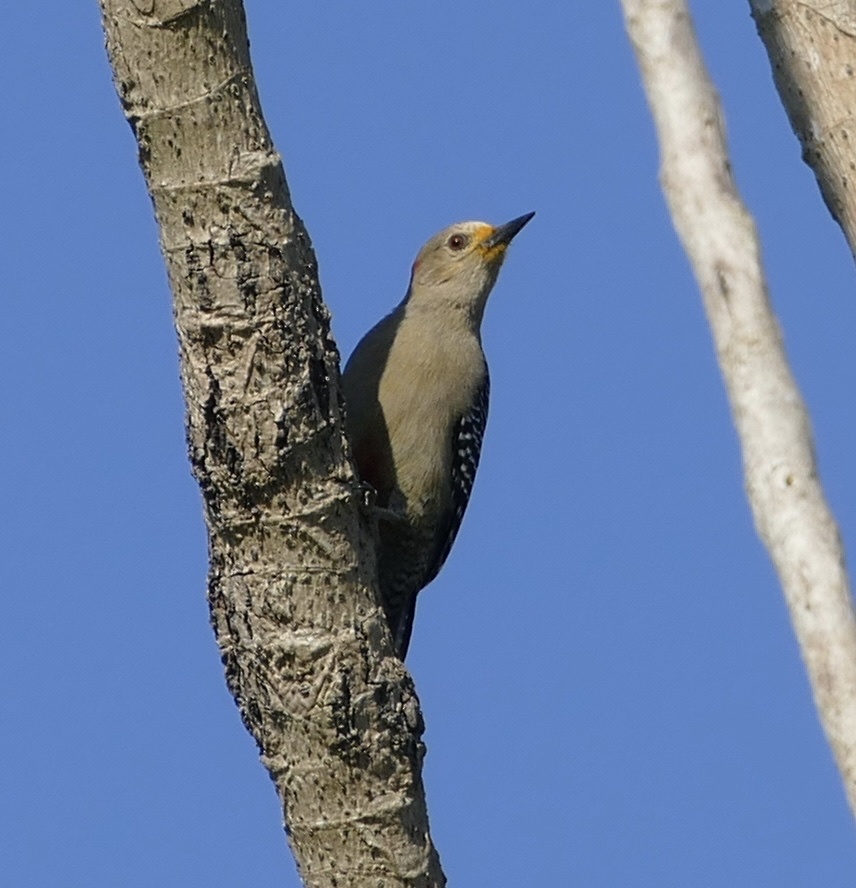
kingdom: Animalia
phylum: Chordata
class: Aves
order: Piciformes
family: Picidae
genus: Melanerpes
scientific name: Melanerpes pygmaeus
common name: Yucatan woodpecker
